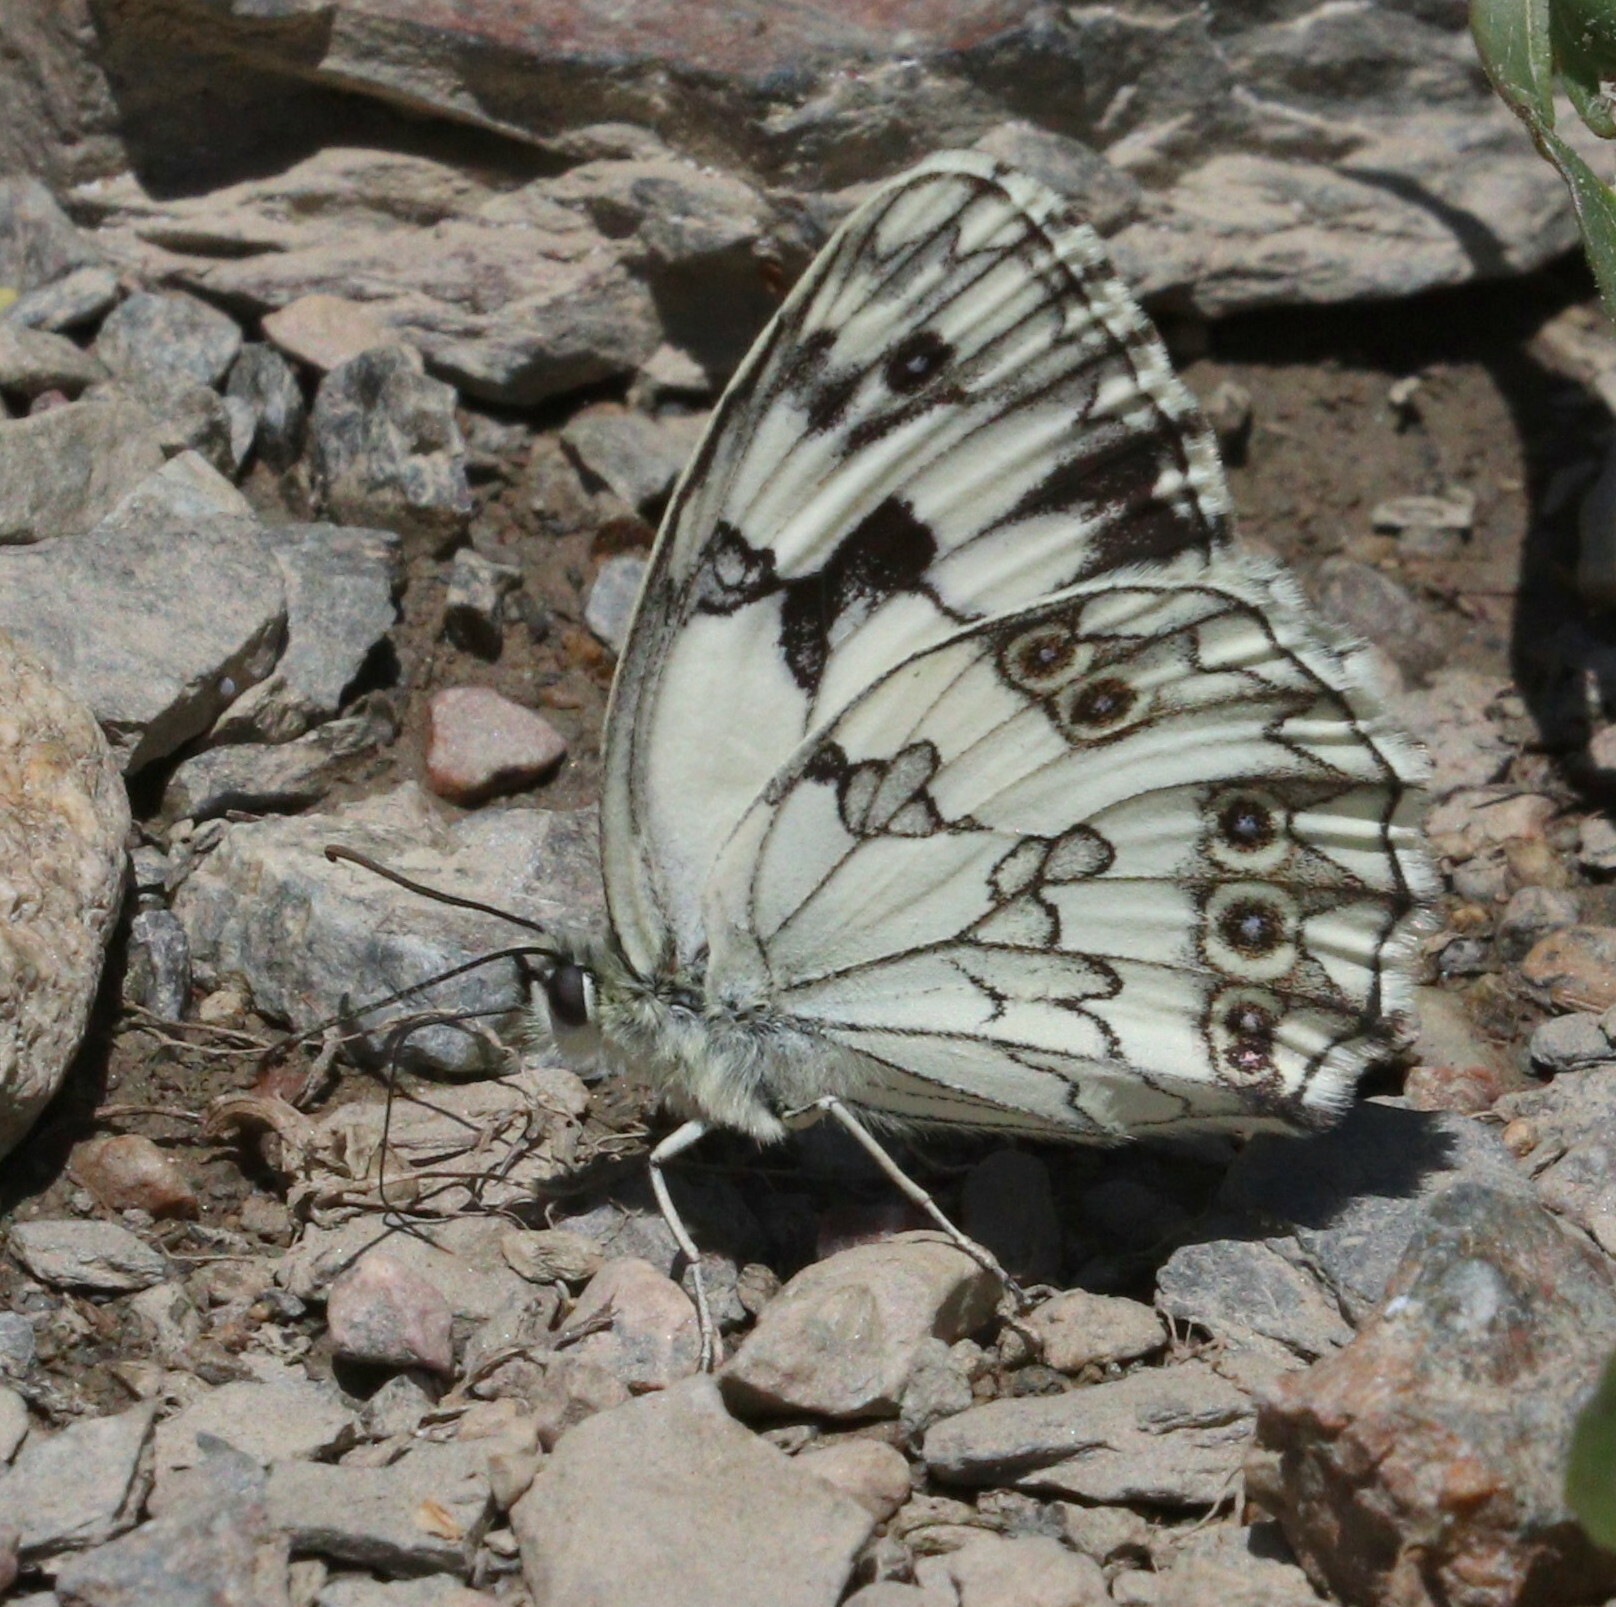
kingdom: Animalia
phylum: Arthropoda
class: Insecta
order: Lepidoptera
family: Nymphalidae
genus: Melanargia
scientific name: Melanargia lachesis
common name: Iberian marbled white
